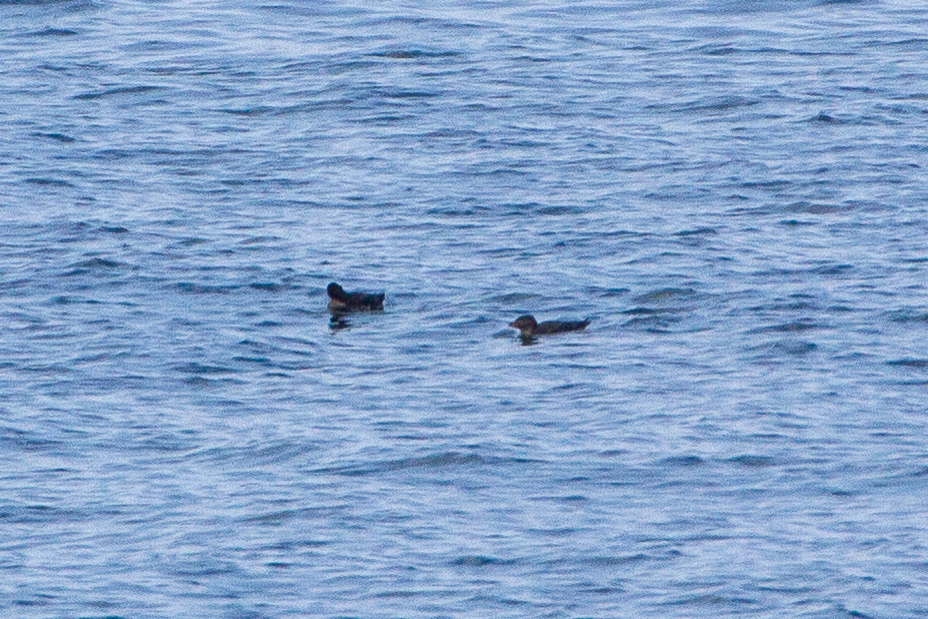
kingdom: Animalia
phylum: Chordata
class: Aves
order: Charadriiformes
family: Alcidae
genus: Cerorhinca
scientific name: Cerorhinca monocerata
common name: Rhinoceros auklet
